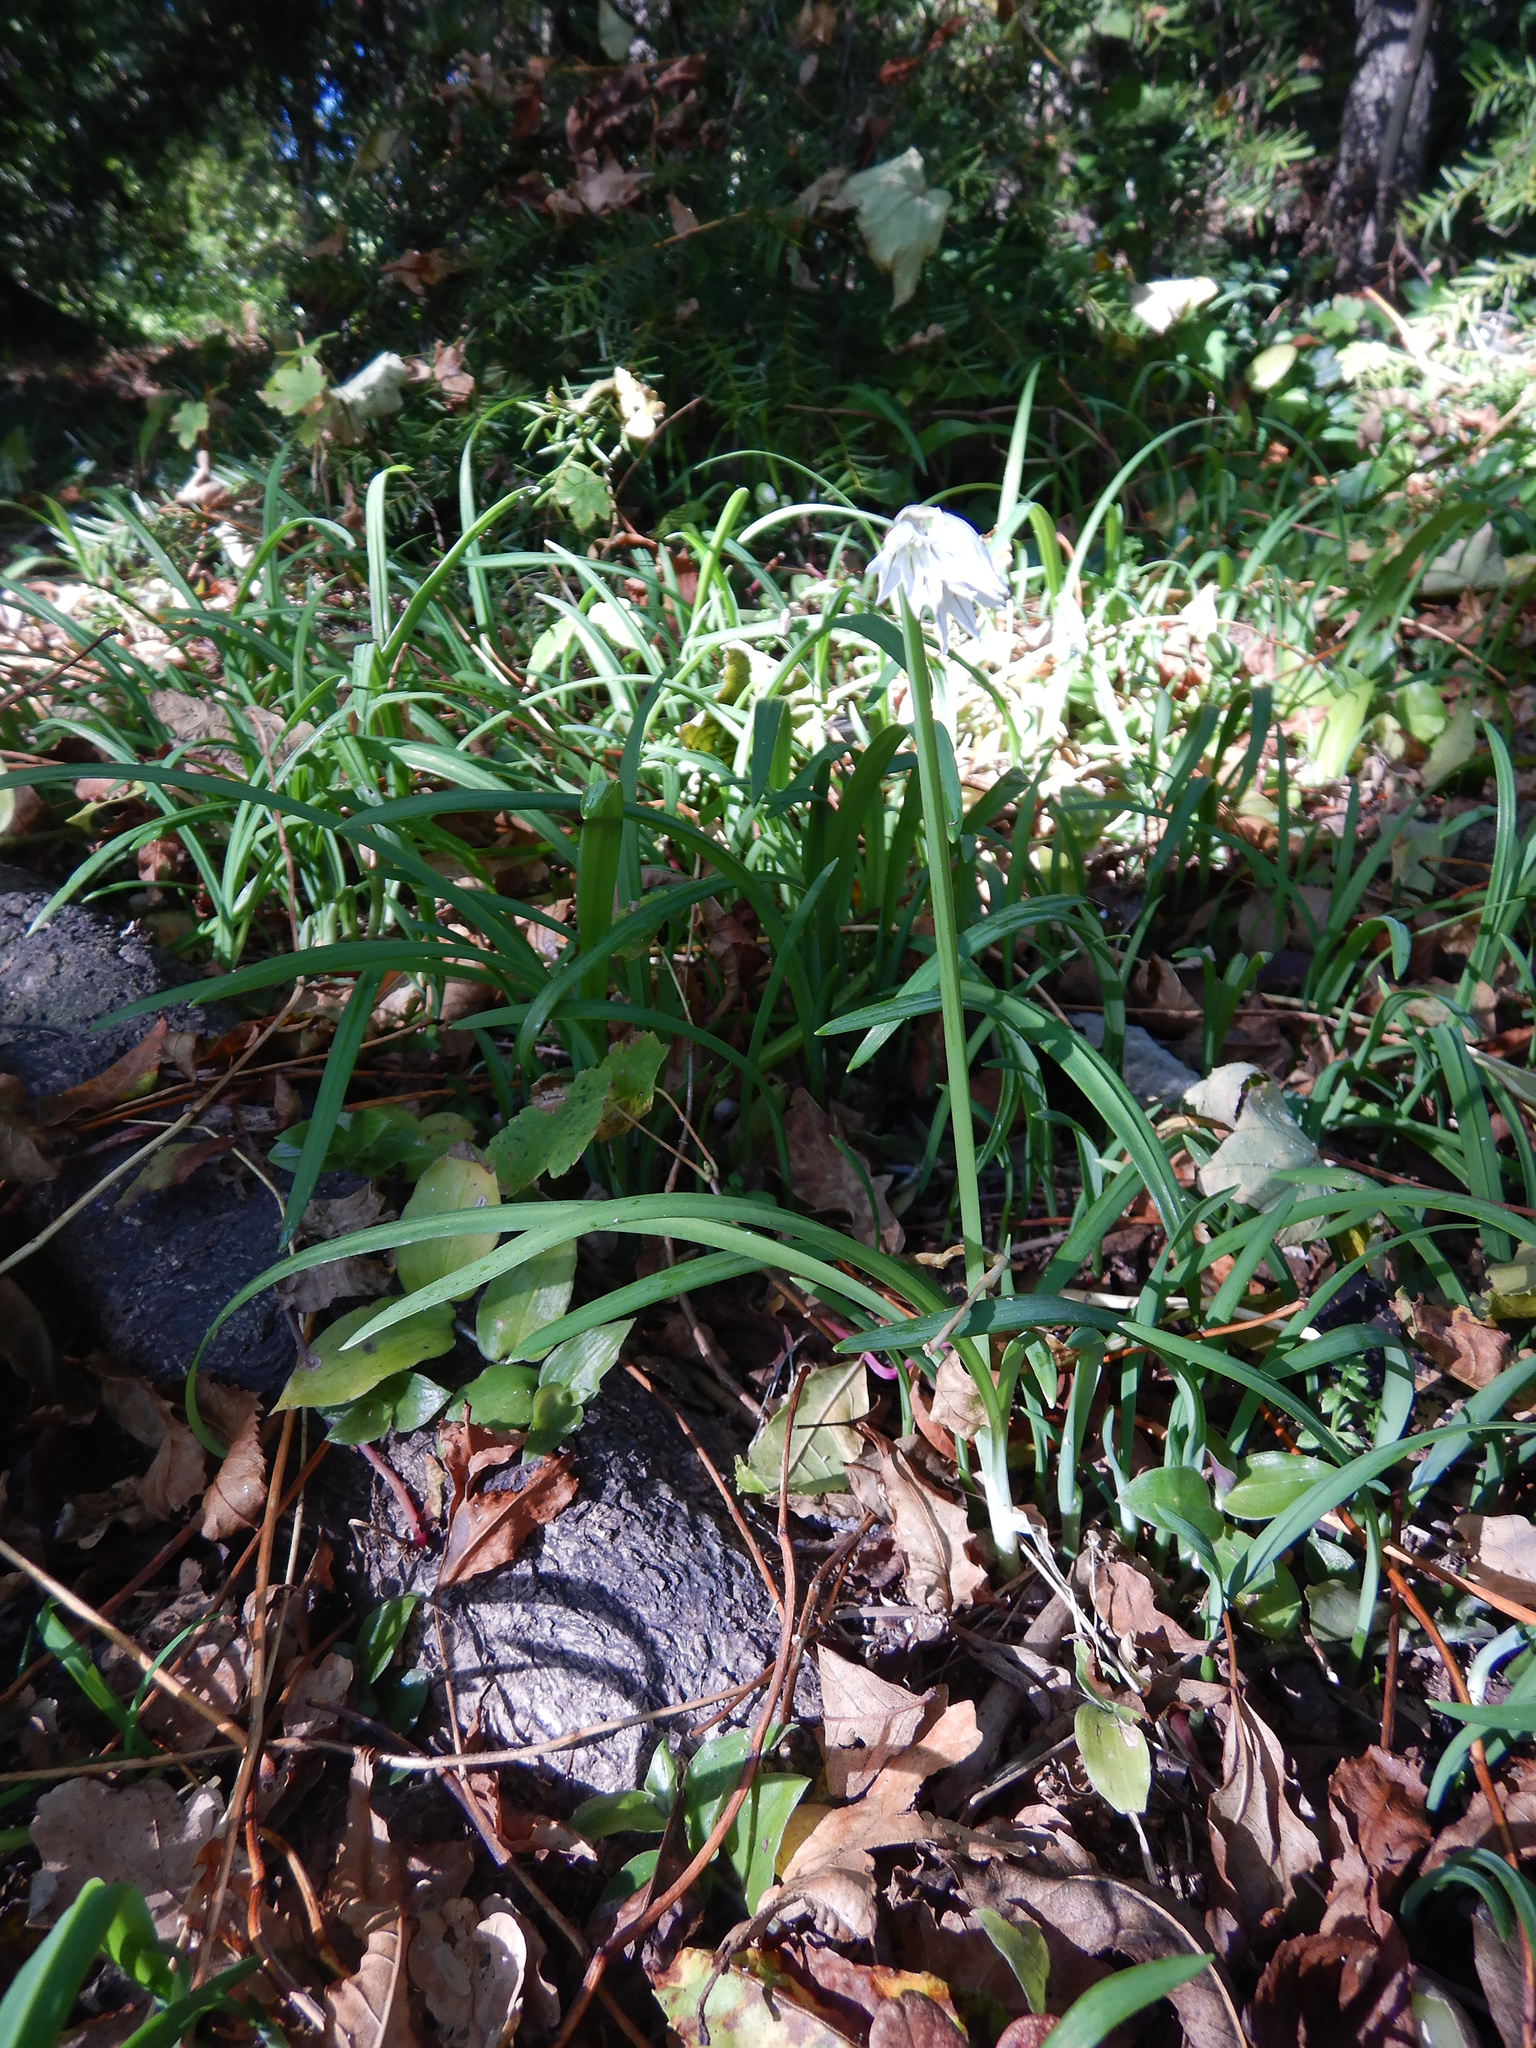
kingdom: Plantae
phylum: Tracheophyta
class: Liliopsida
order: Asparagales
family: Amaryllidaceae
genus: Allium
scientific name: Allium triquetrum
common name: Three-cornered garlic
